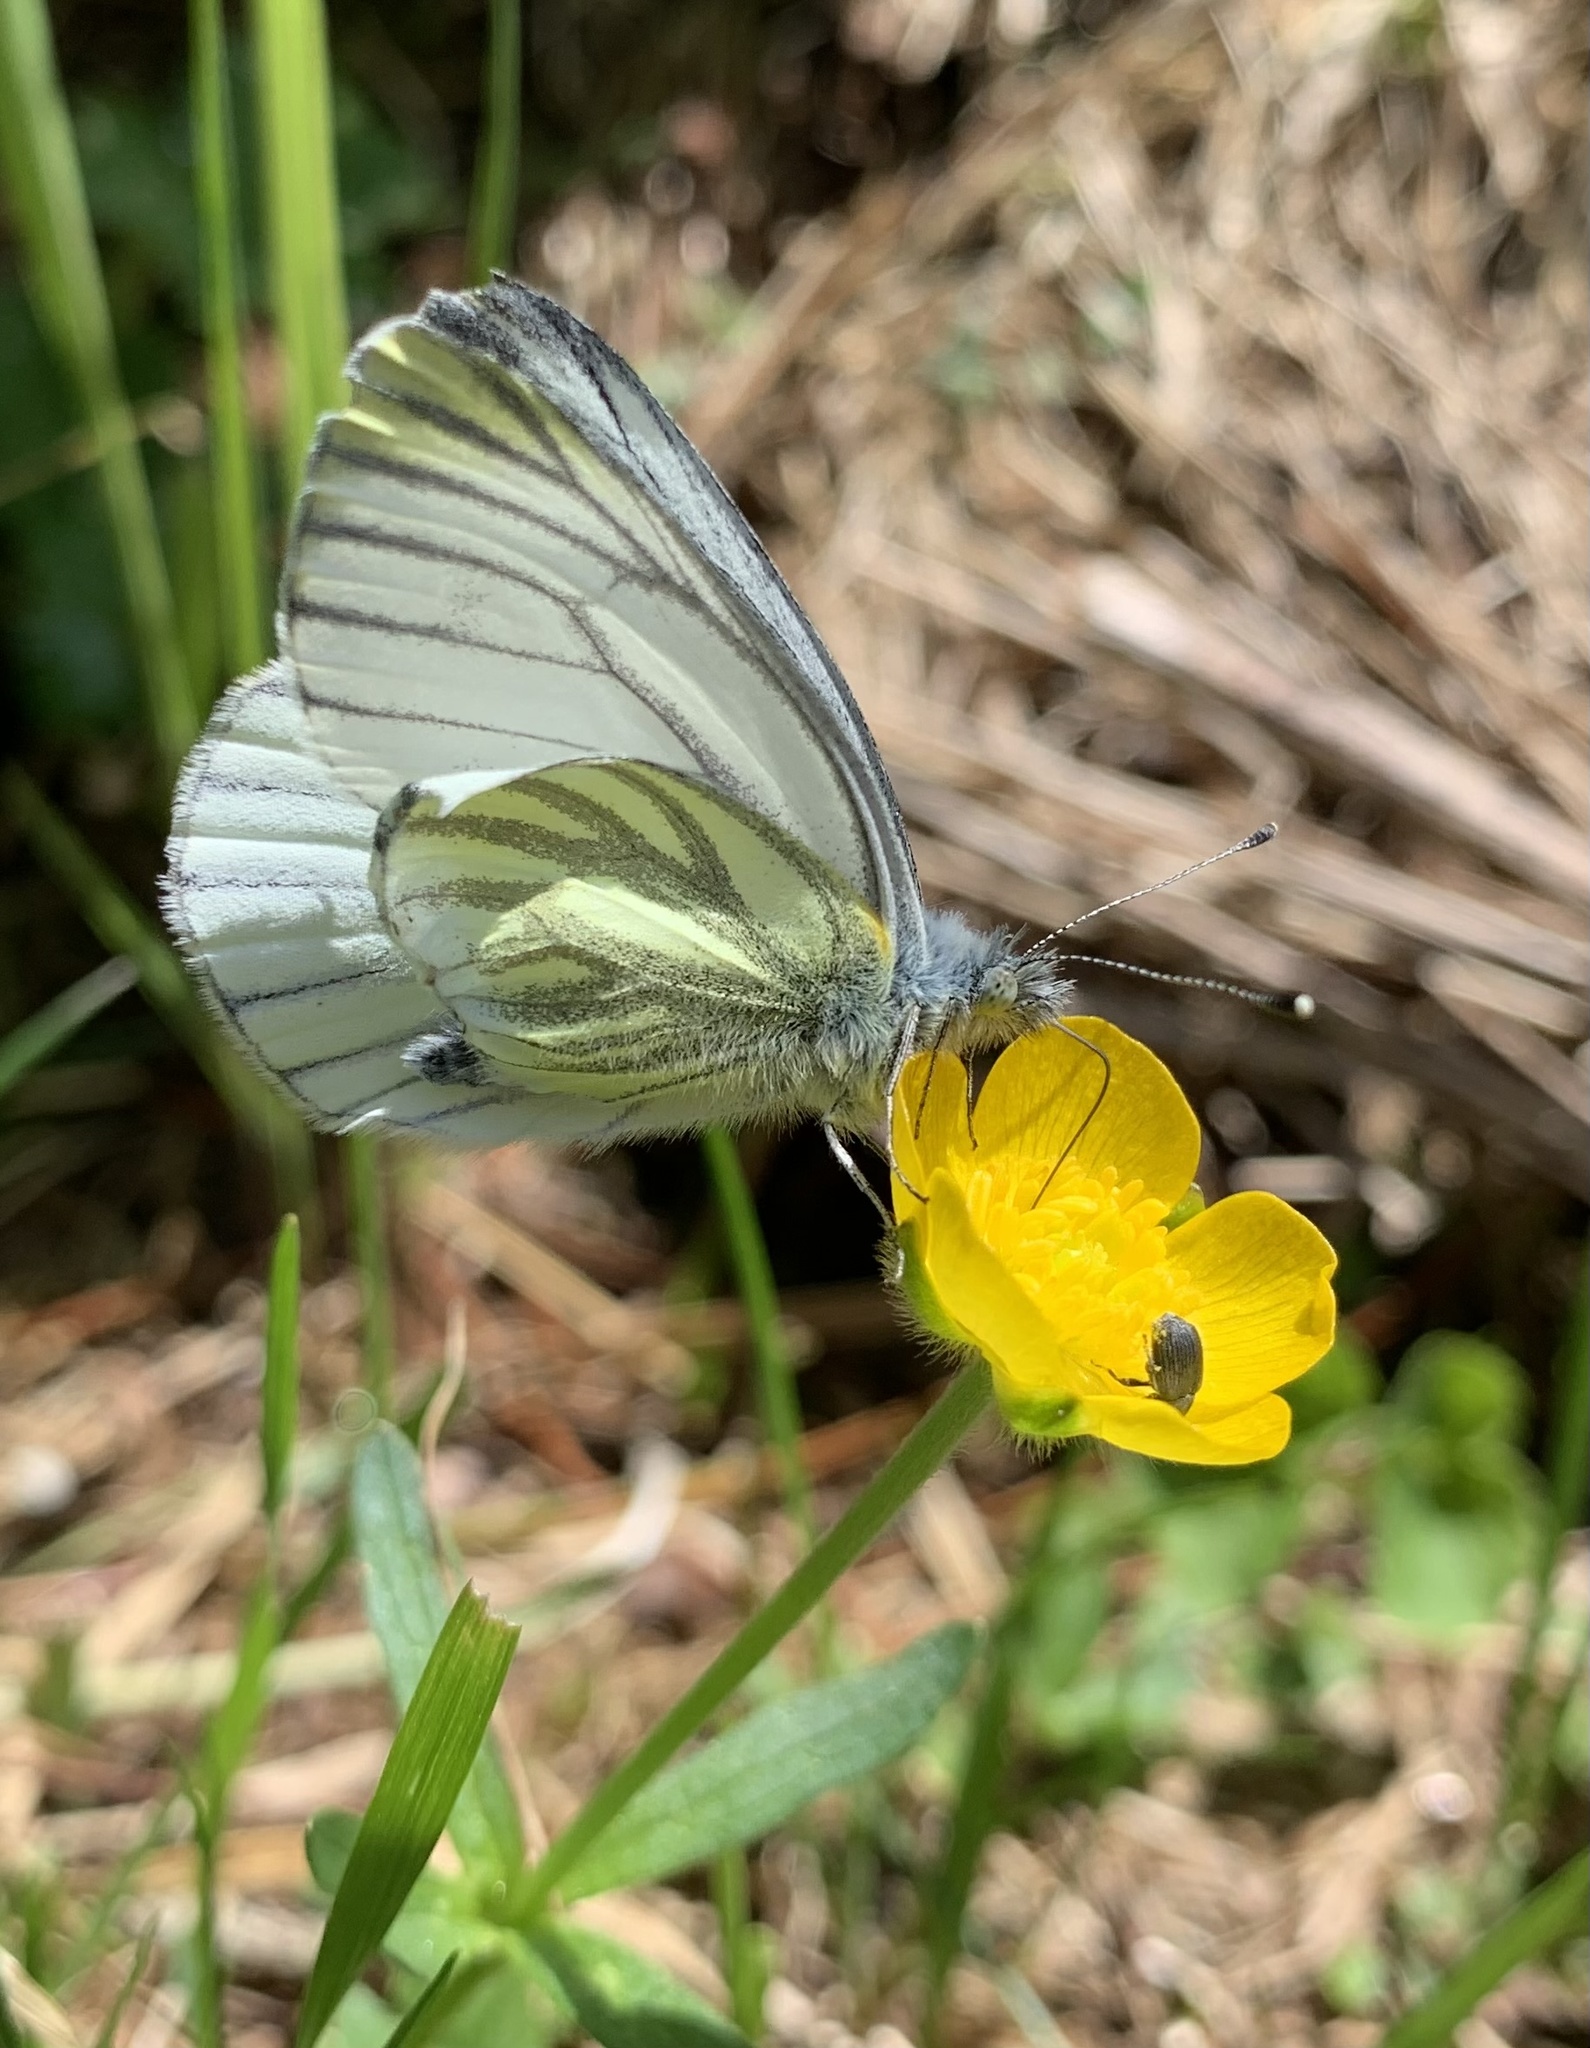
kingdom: Animalia
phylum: Arthropoda
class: Insecta
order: Lepidoptera
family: Pieridae
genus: Pieris
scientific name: Pieris napi
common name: Green-veined white
